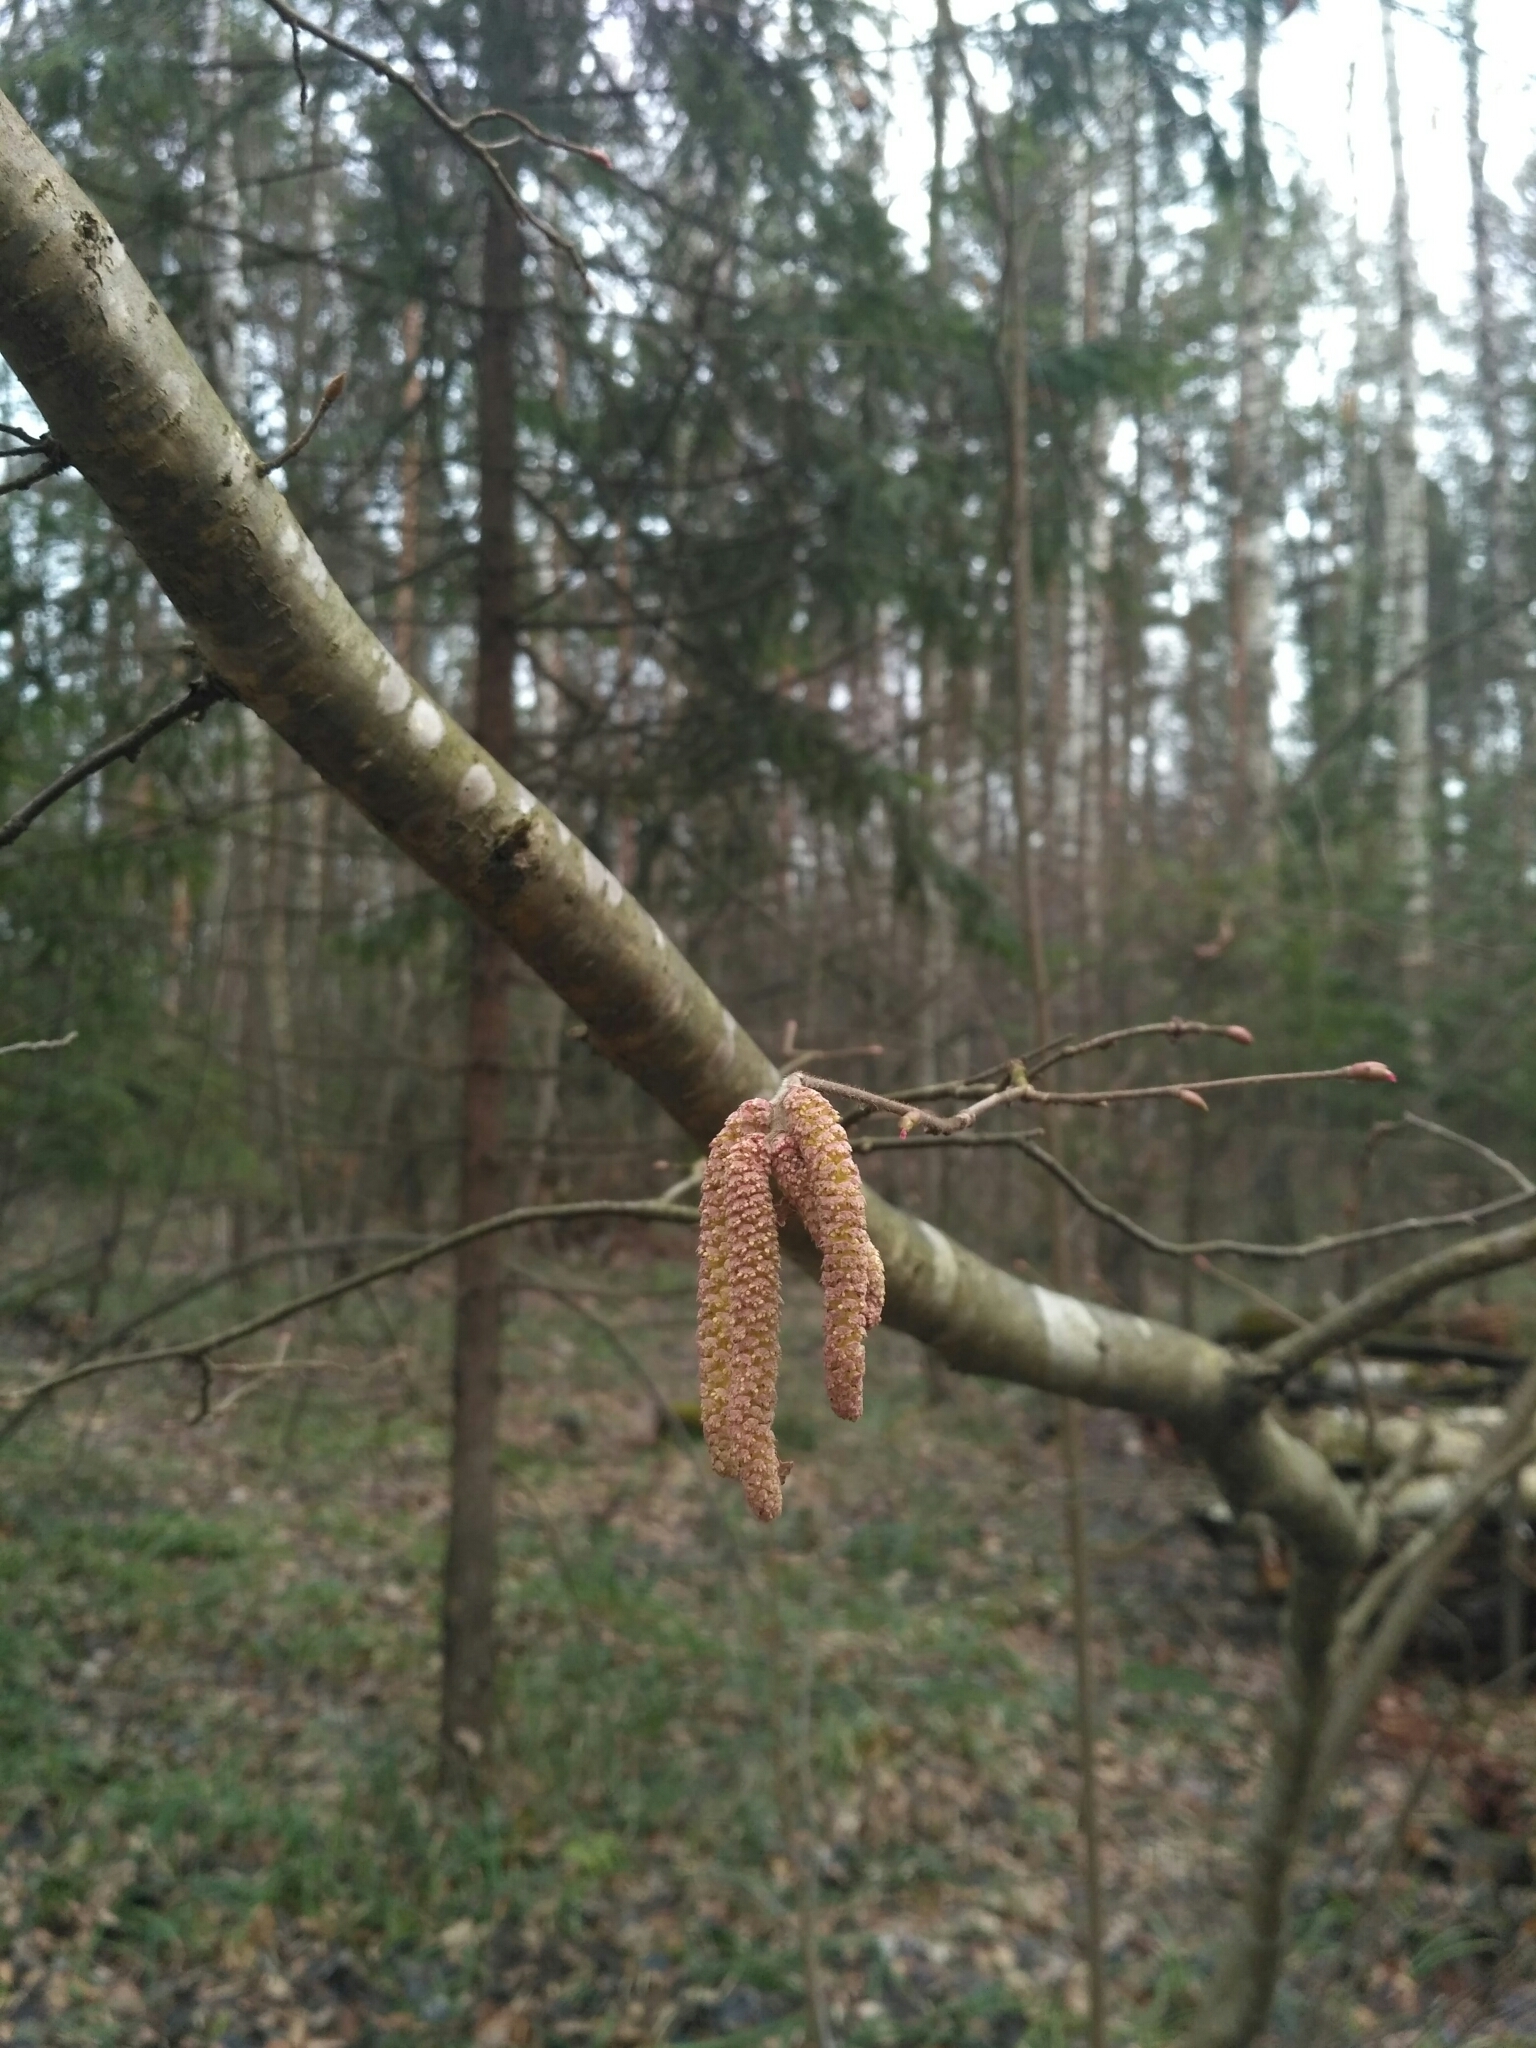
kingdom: Plantae
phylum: Tracheophyta
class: Magnoliopsida
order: Fagales
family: Betulaceae
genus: Corylus
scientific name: Corylus avellana
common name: European hazel
